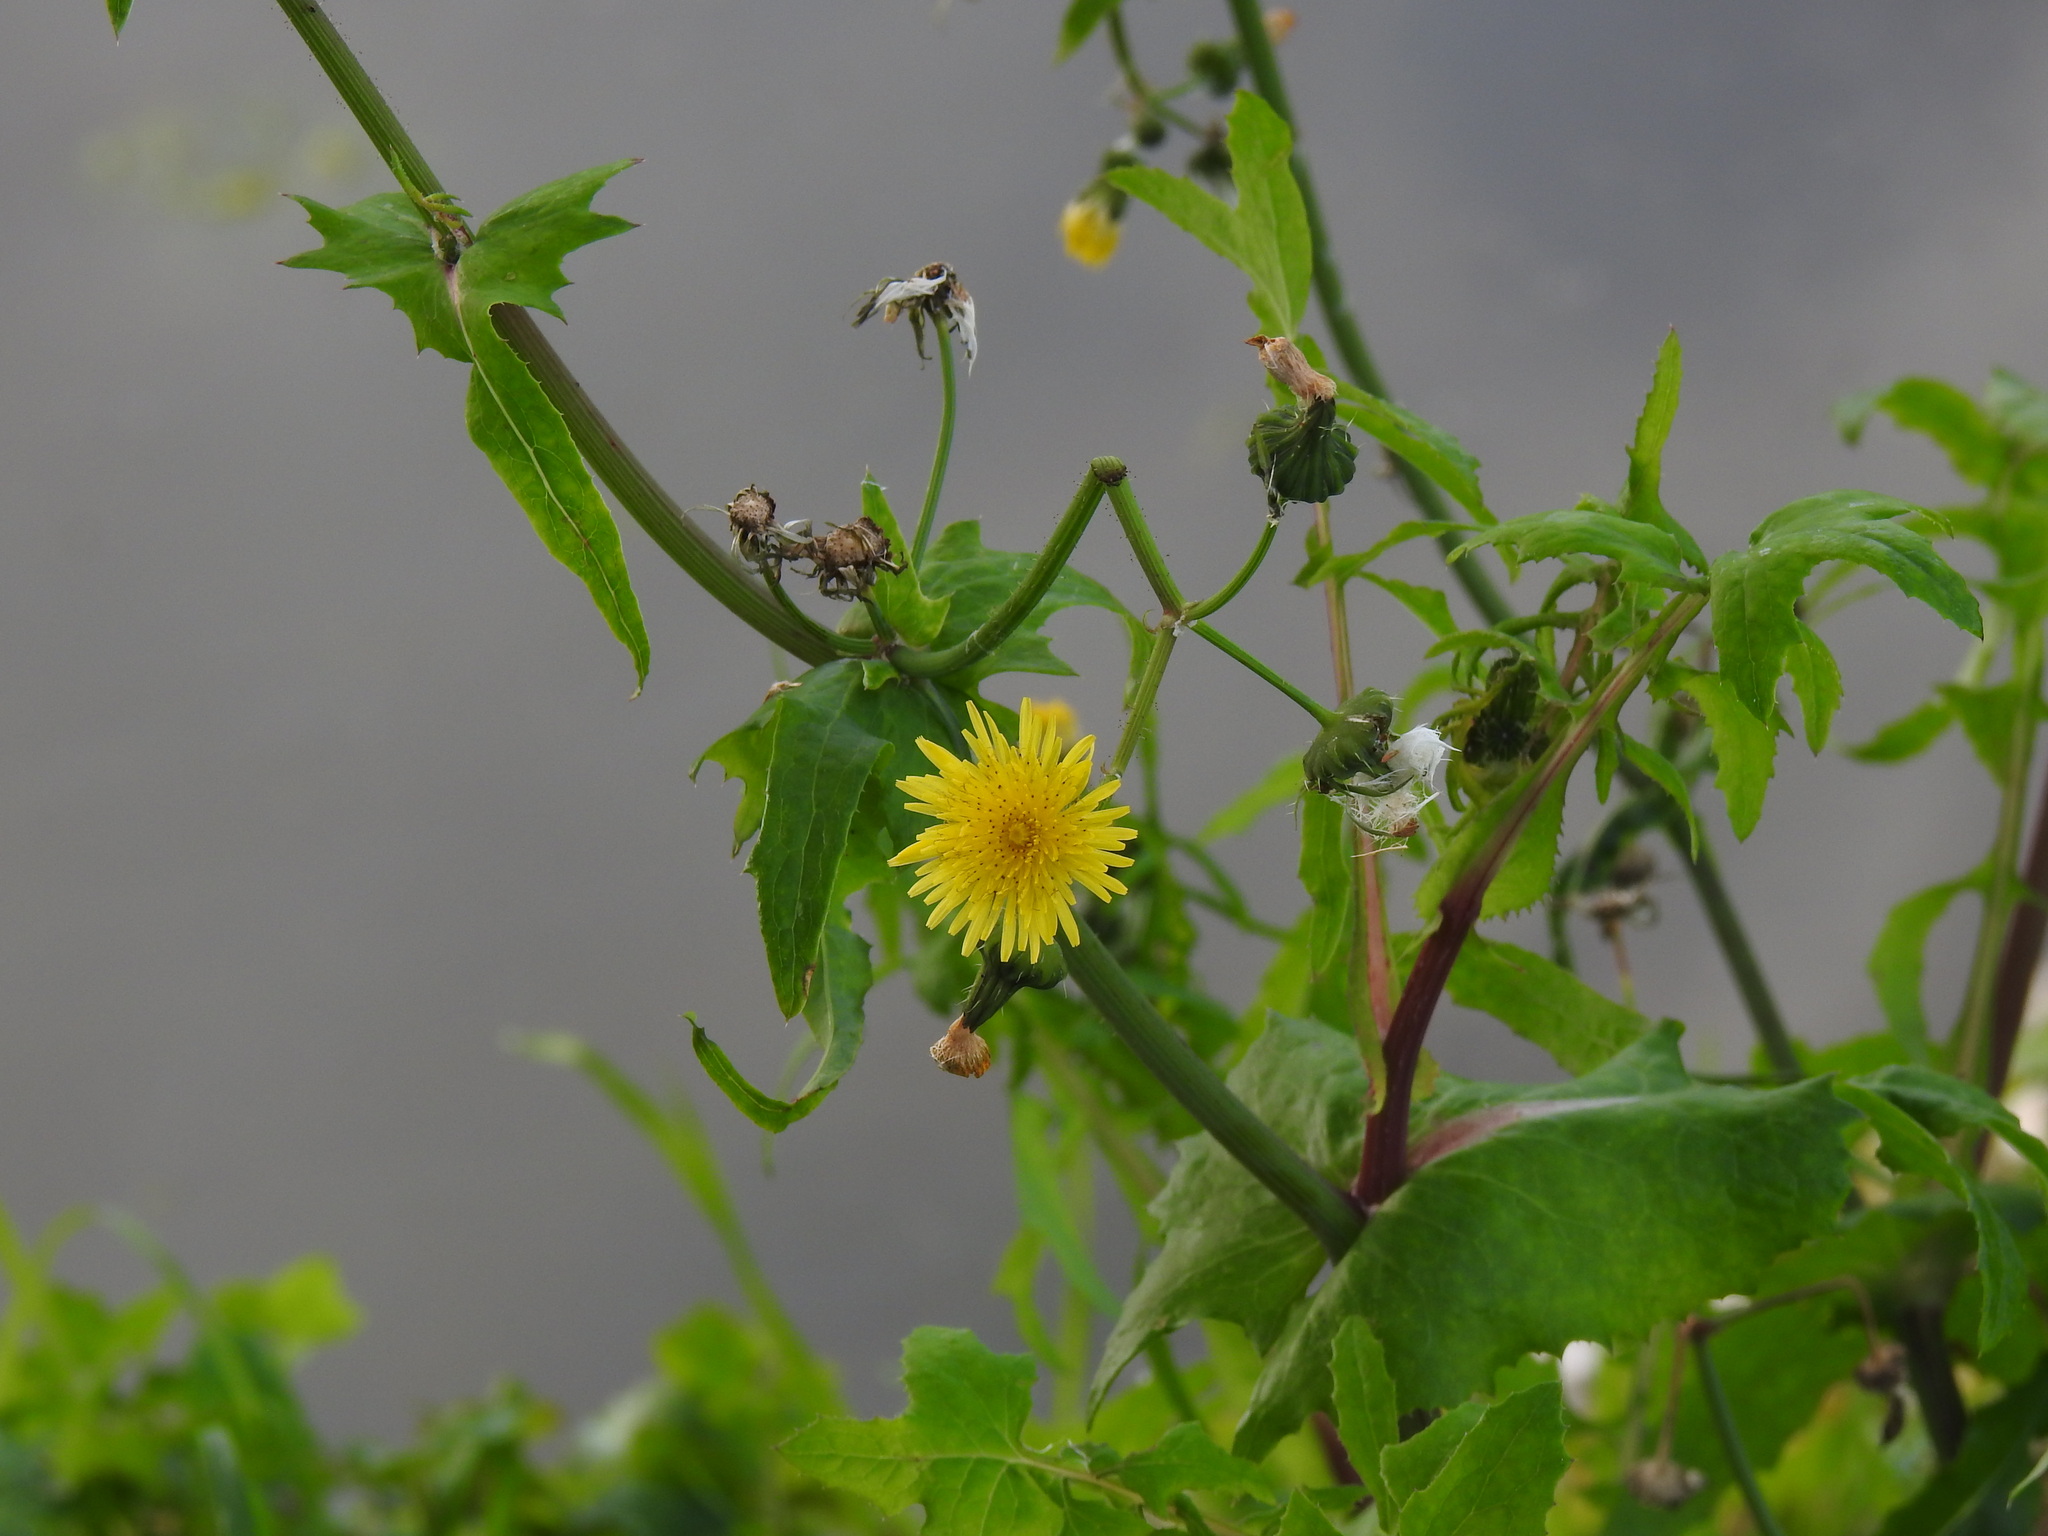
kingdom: Plantae
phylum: Tracheophyta
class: Magnoliopsida
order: Asterales
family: Asteraceae
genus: Sonchus
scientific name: Sonchus oleraceus
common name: Common sowthistle
